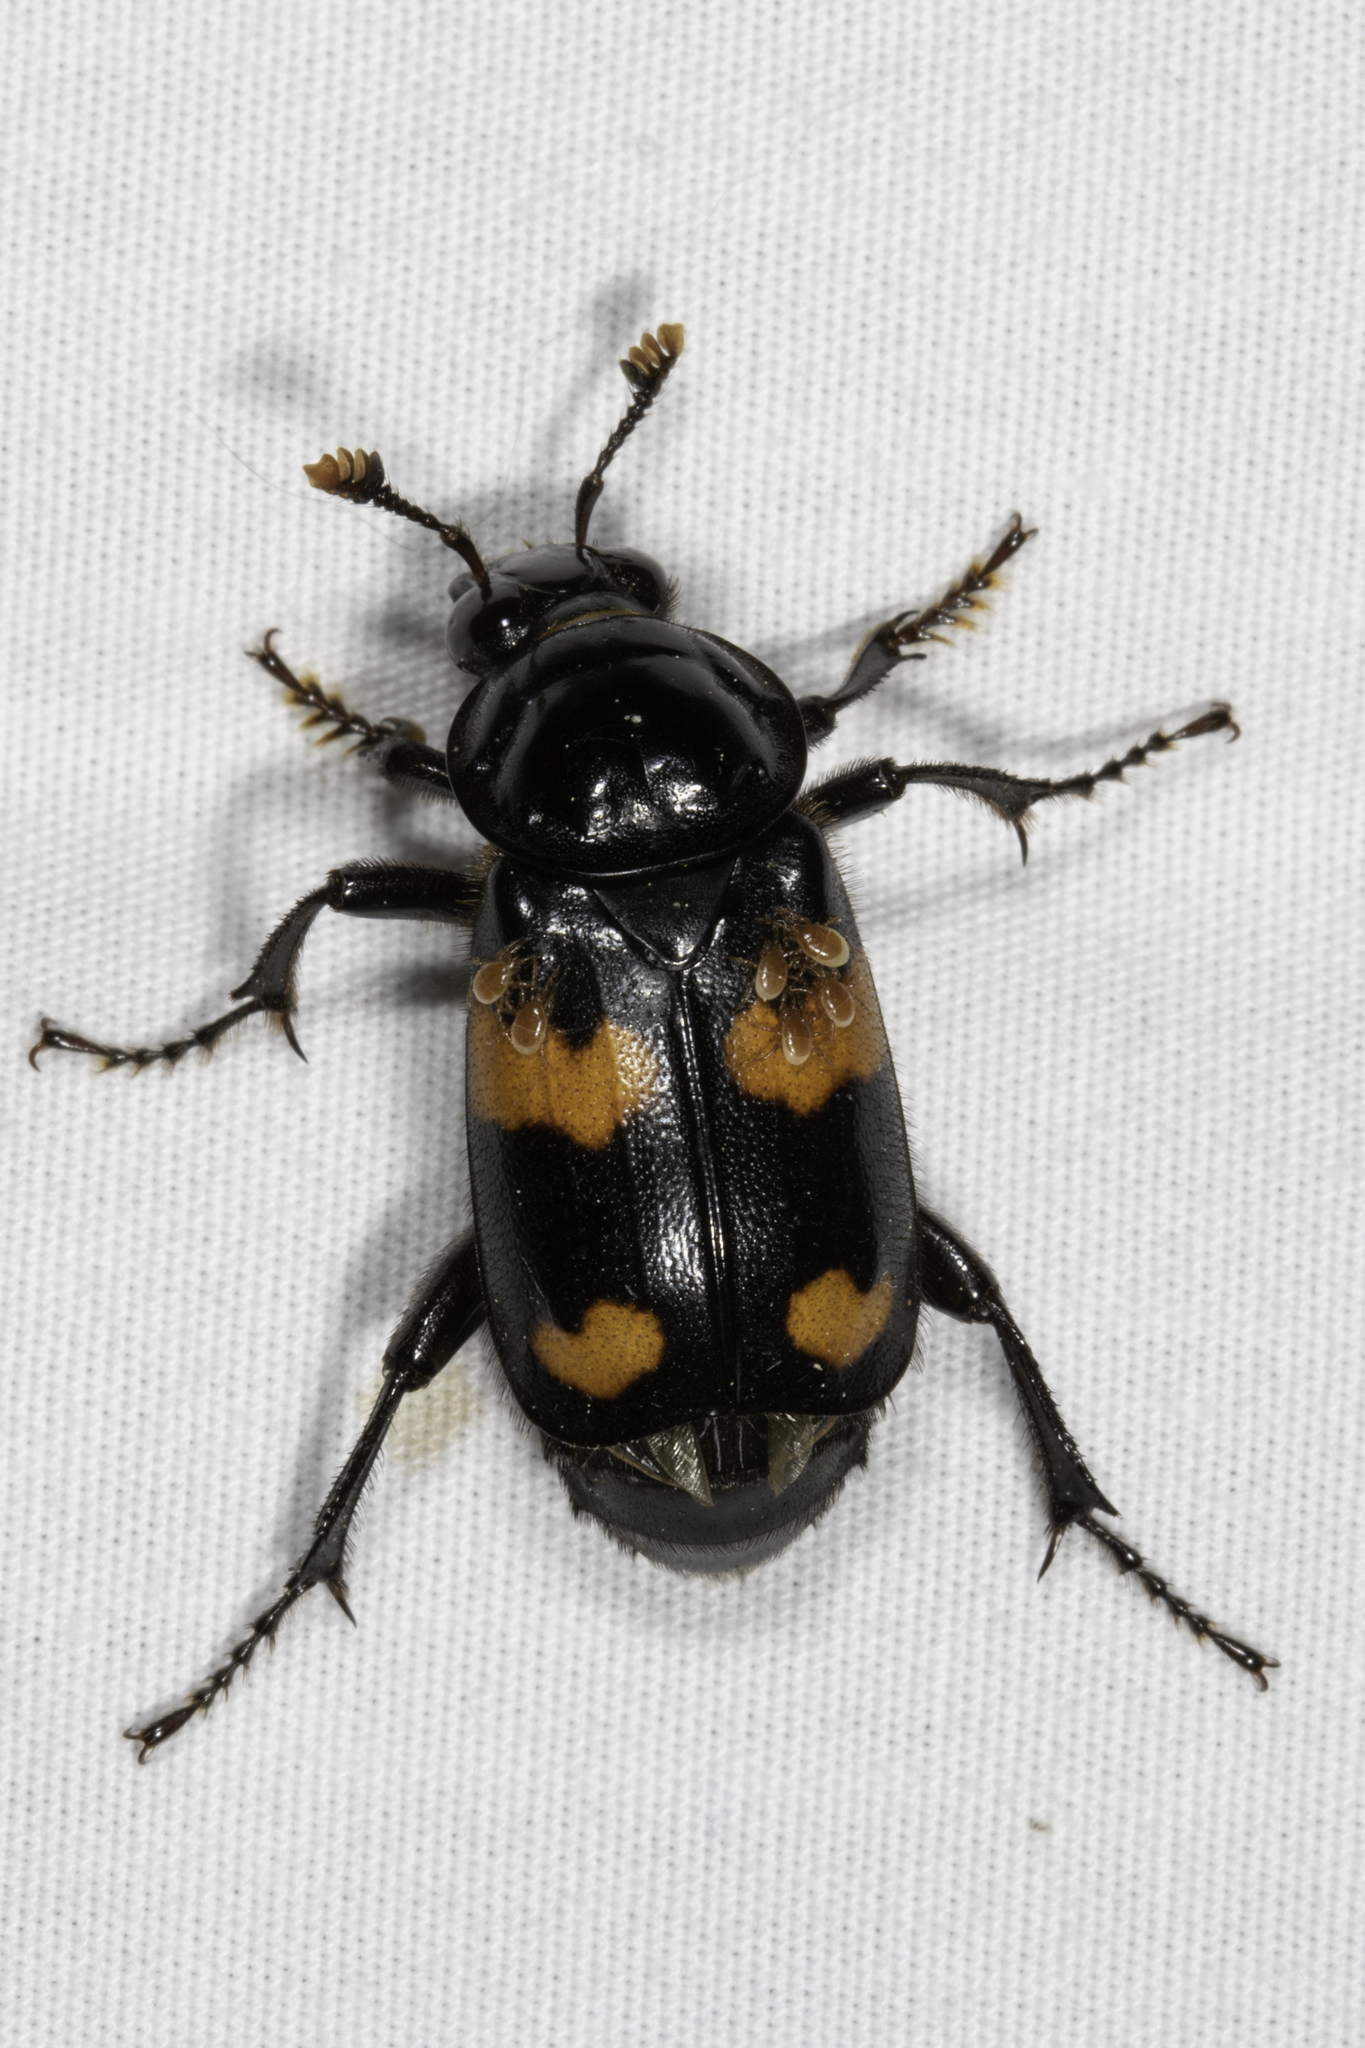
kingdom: Animalia
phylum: Arthropoda
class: Insecta
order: Coleoptera
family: Staphylinidae
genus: Nicrophorus
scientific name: Nicrophorus orbicollis
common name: Roundneck sexton beetle
